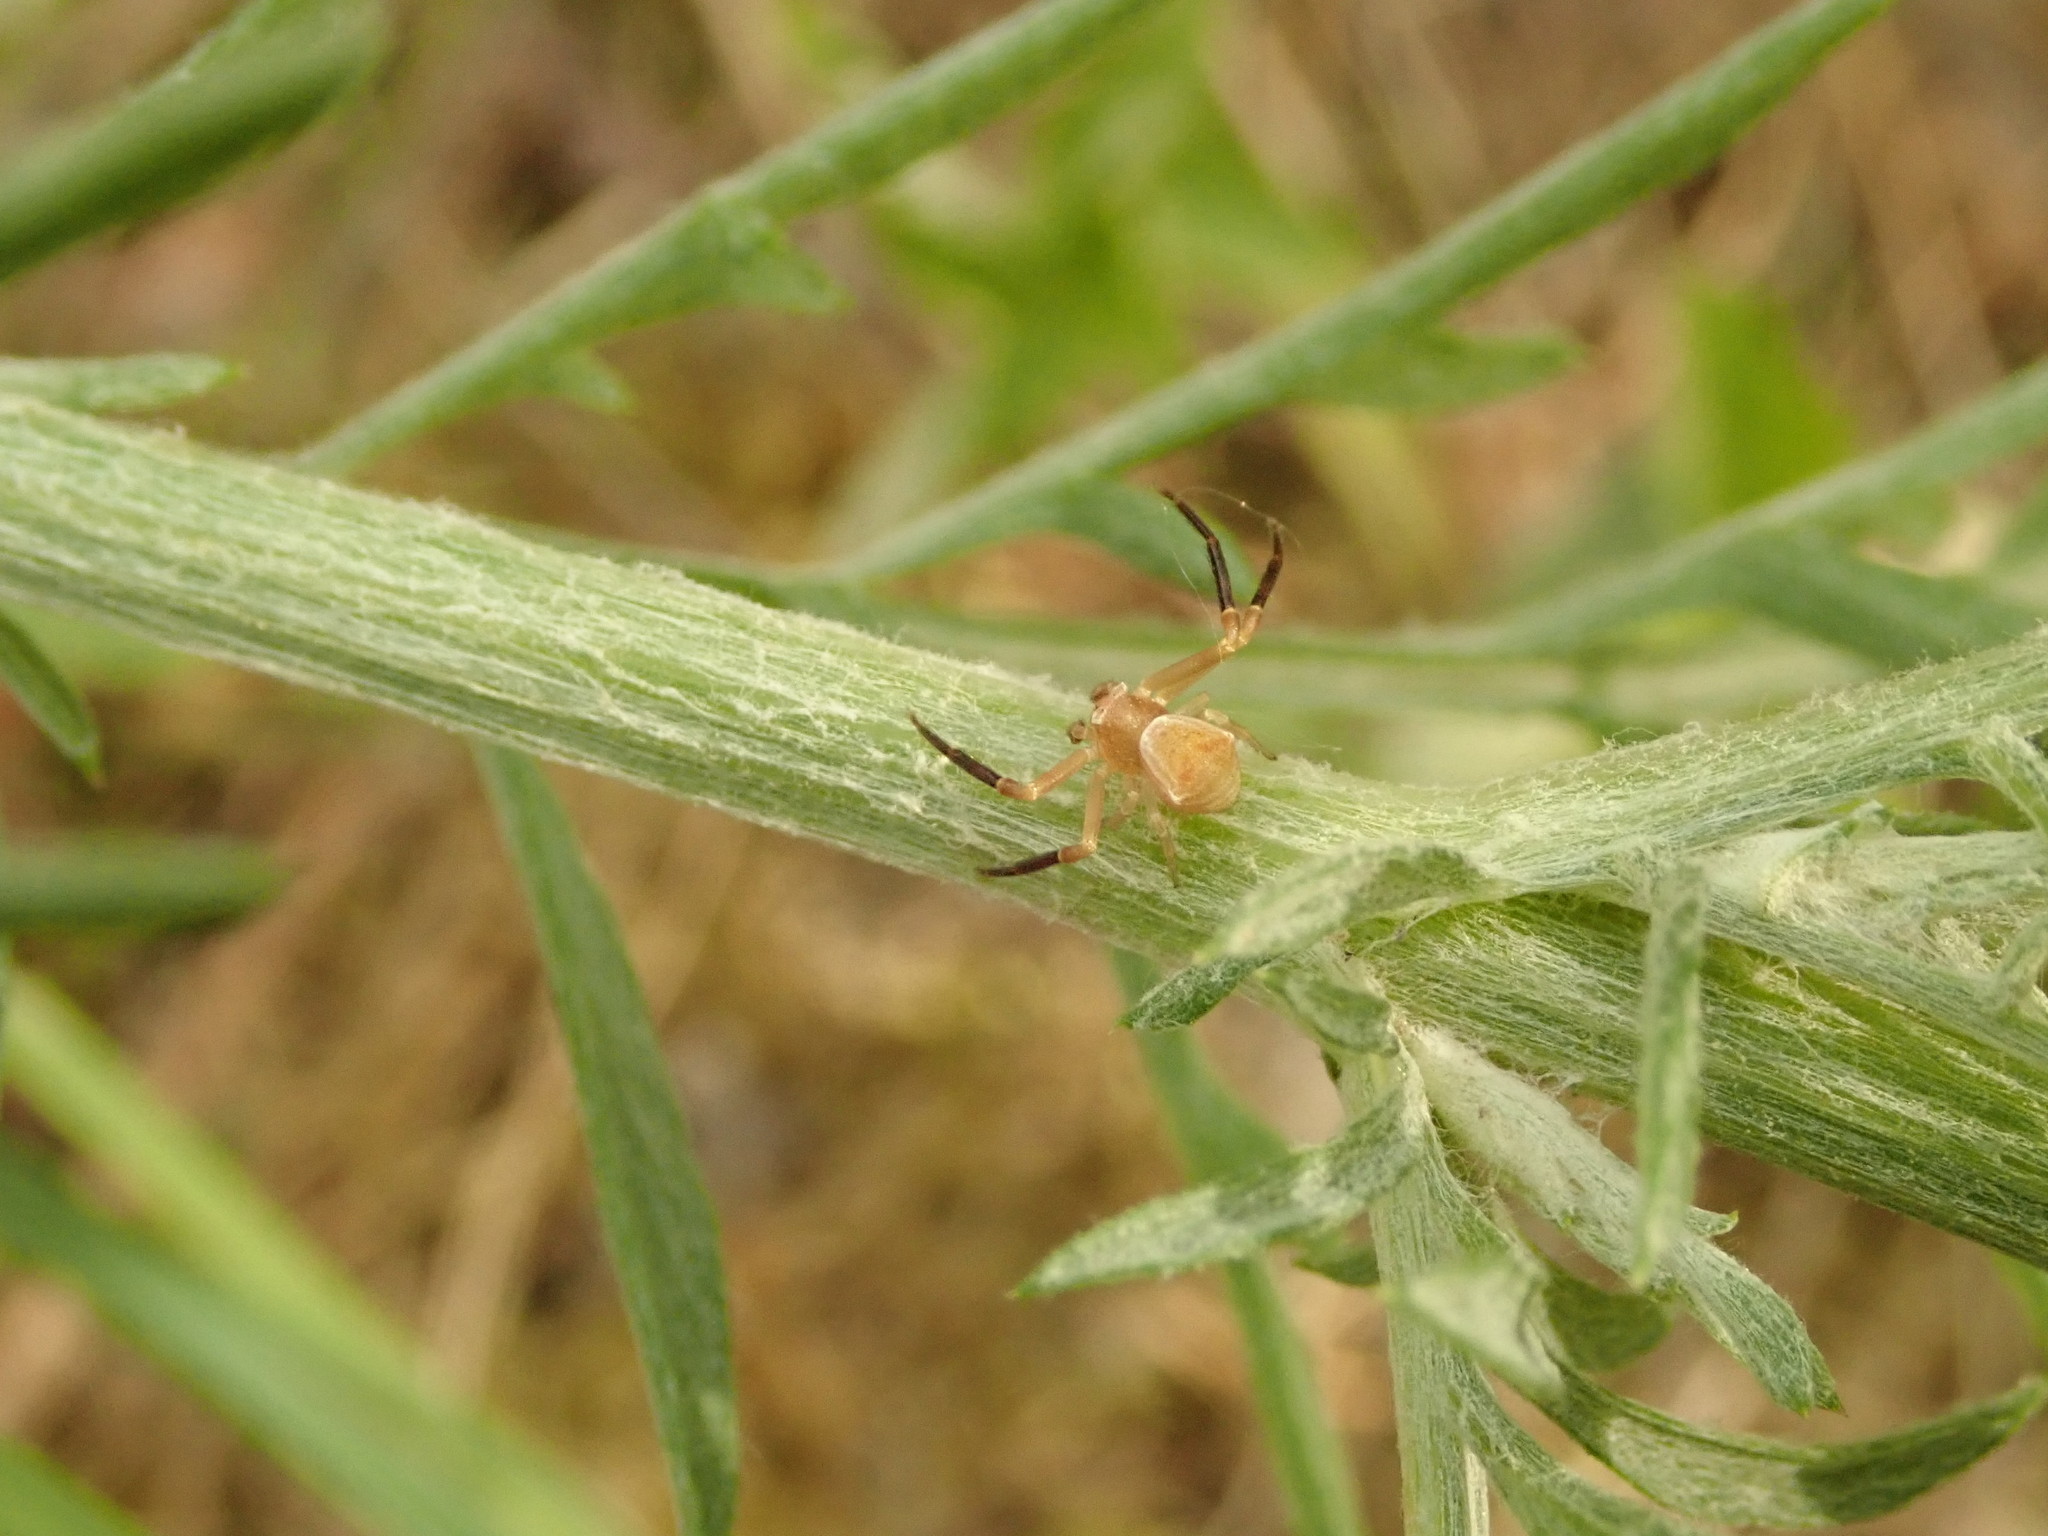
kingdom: Animalia
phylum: Arthropoda
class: Arachnida
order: Araneae
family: Thomisidae
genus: Thomisus
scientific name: Thomisus onustus
